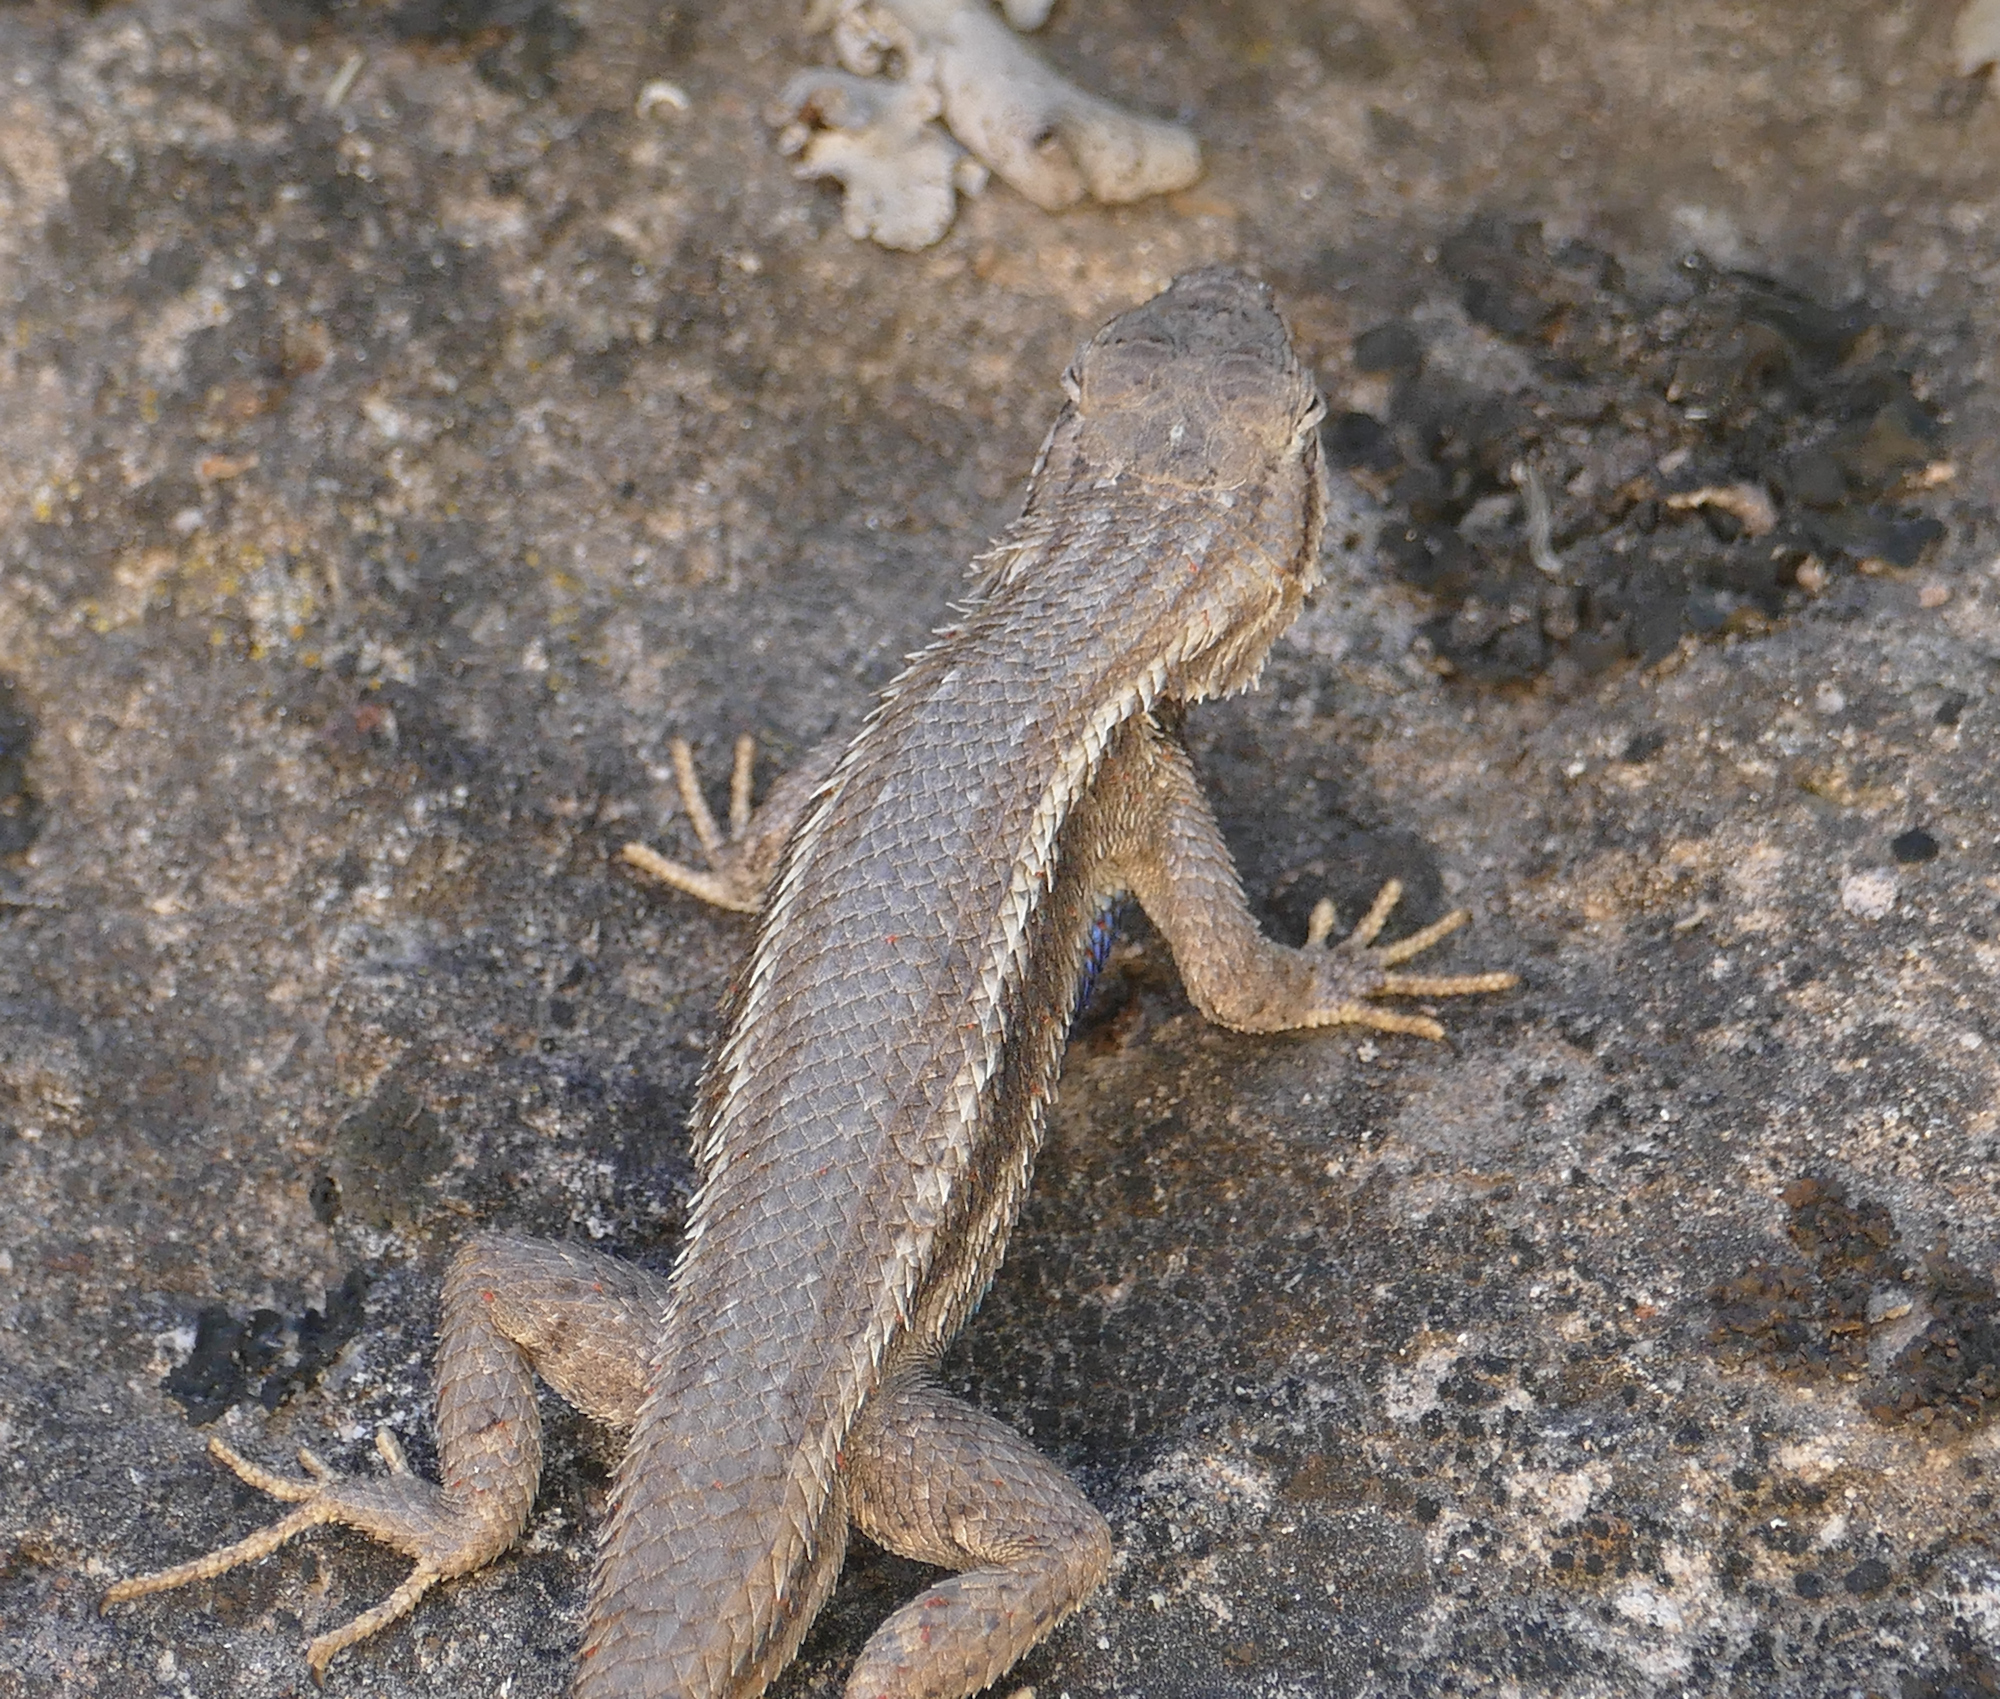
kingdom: Animalia
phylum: Chordata
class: Squamata
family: Phrynosomatidae
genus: Sceloporus
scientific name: Sceloporus cowlesi
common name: White sands prairie lizard
